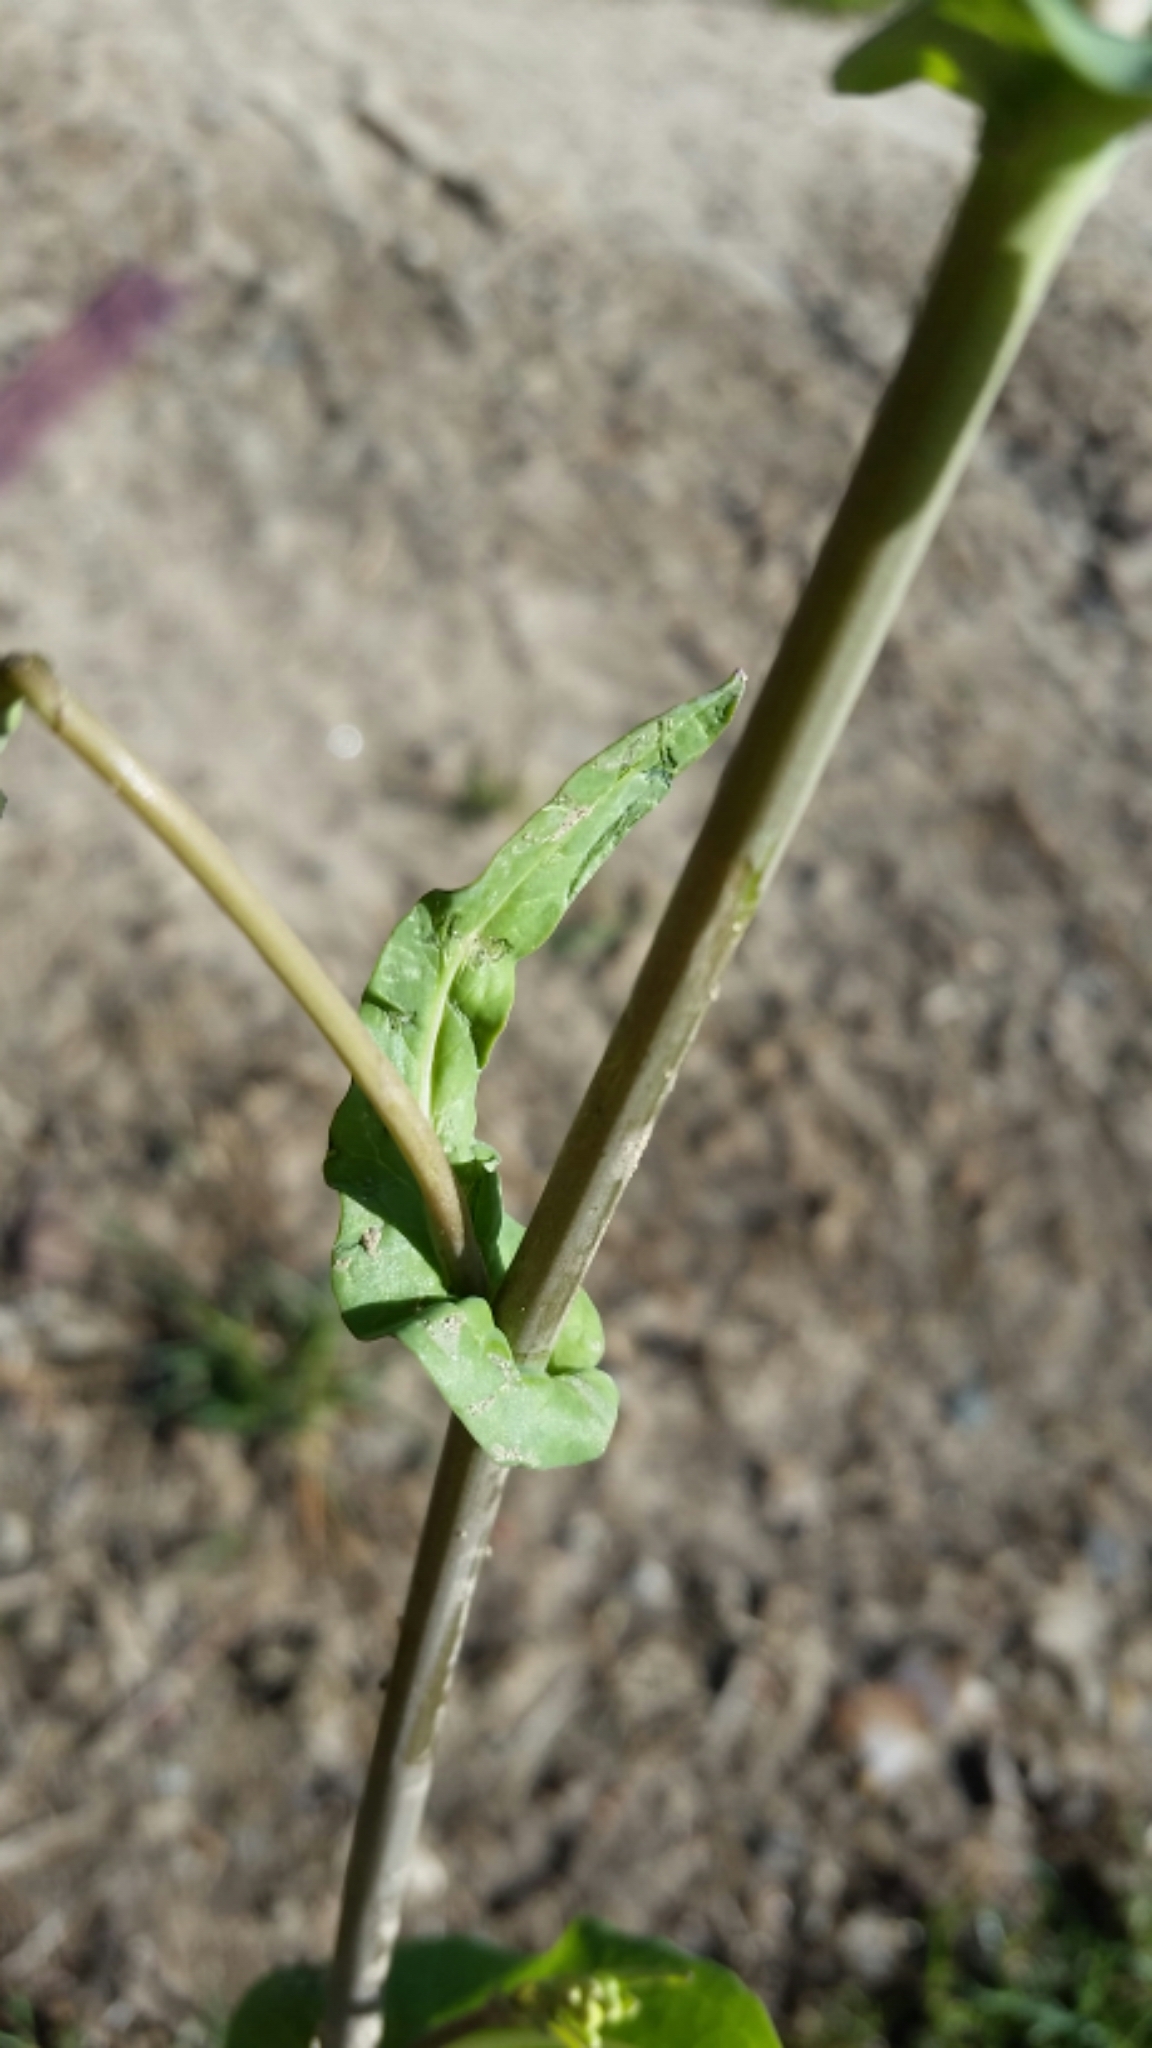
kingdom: Plantae
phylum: Tracheophyta
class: Magnoliopsida
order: Brassicales
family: Brassicaceae
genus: Brassica
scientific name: Brassica rapa
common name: Field mustard
